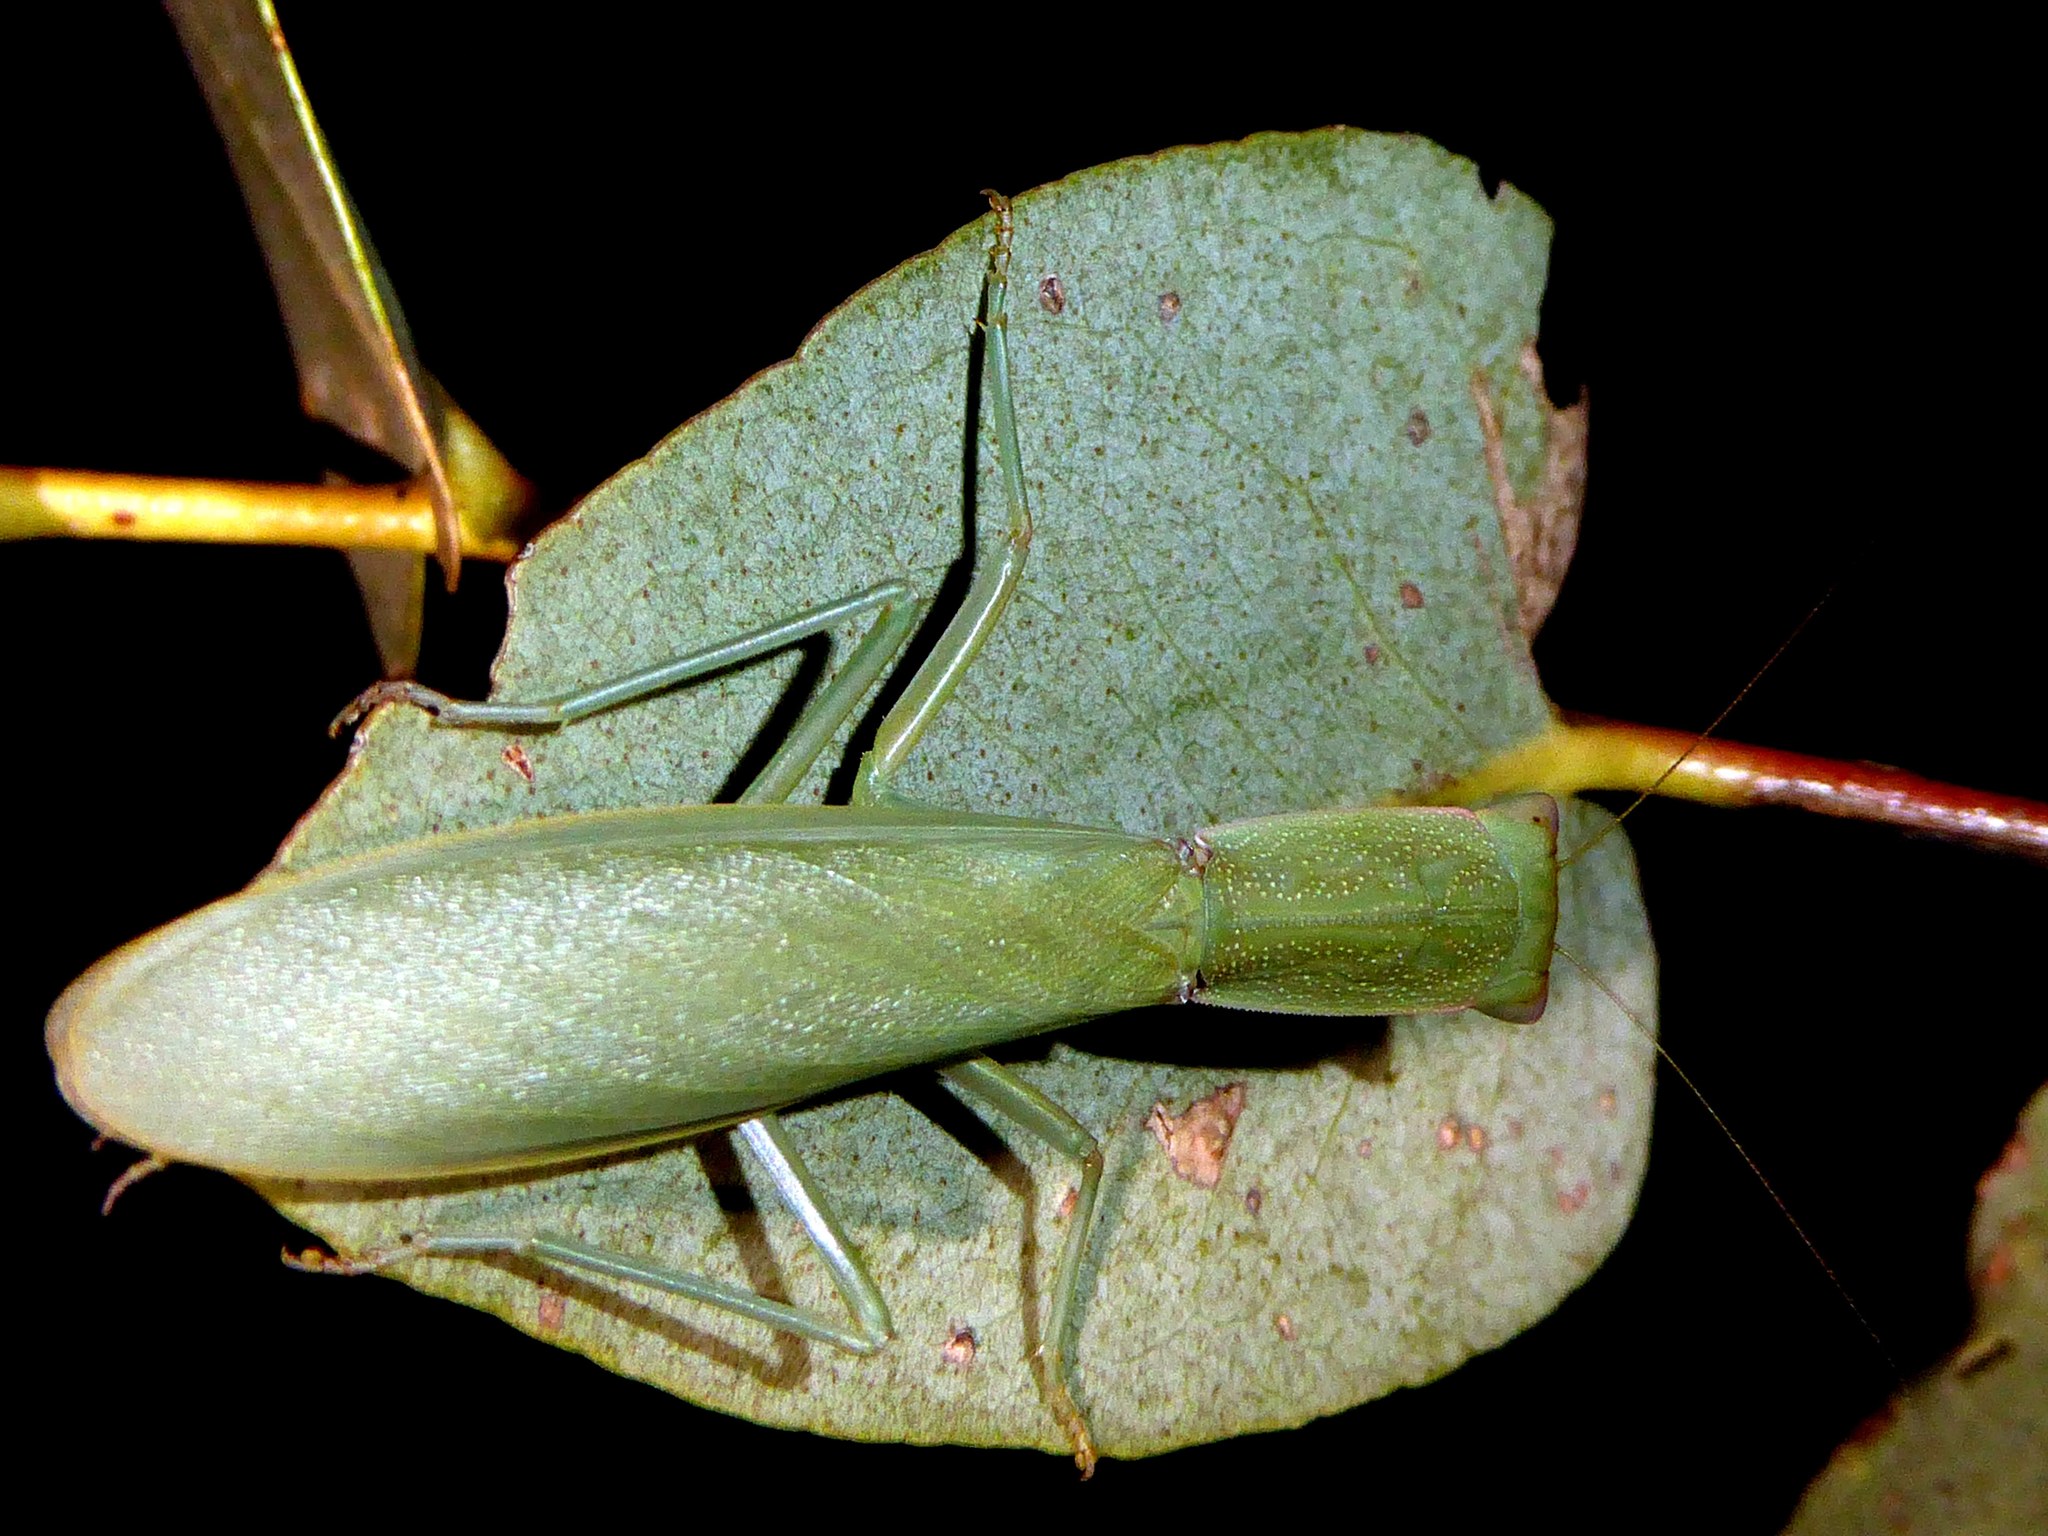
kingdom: Animalia
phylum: Arthropoda
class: Insecta
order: Mantodea
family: Mantidae
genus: Orthodera
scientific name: Orthodera ministralis
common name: Mantis
